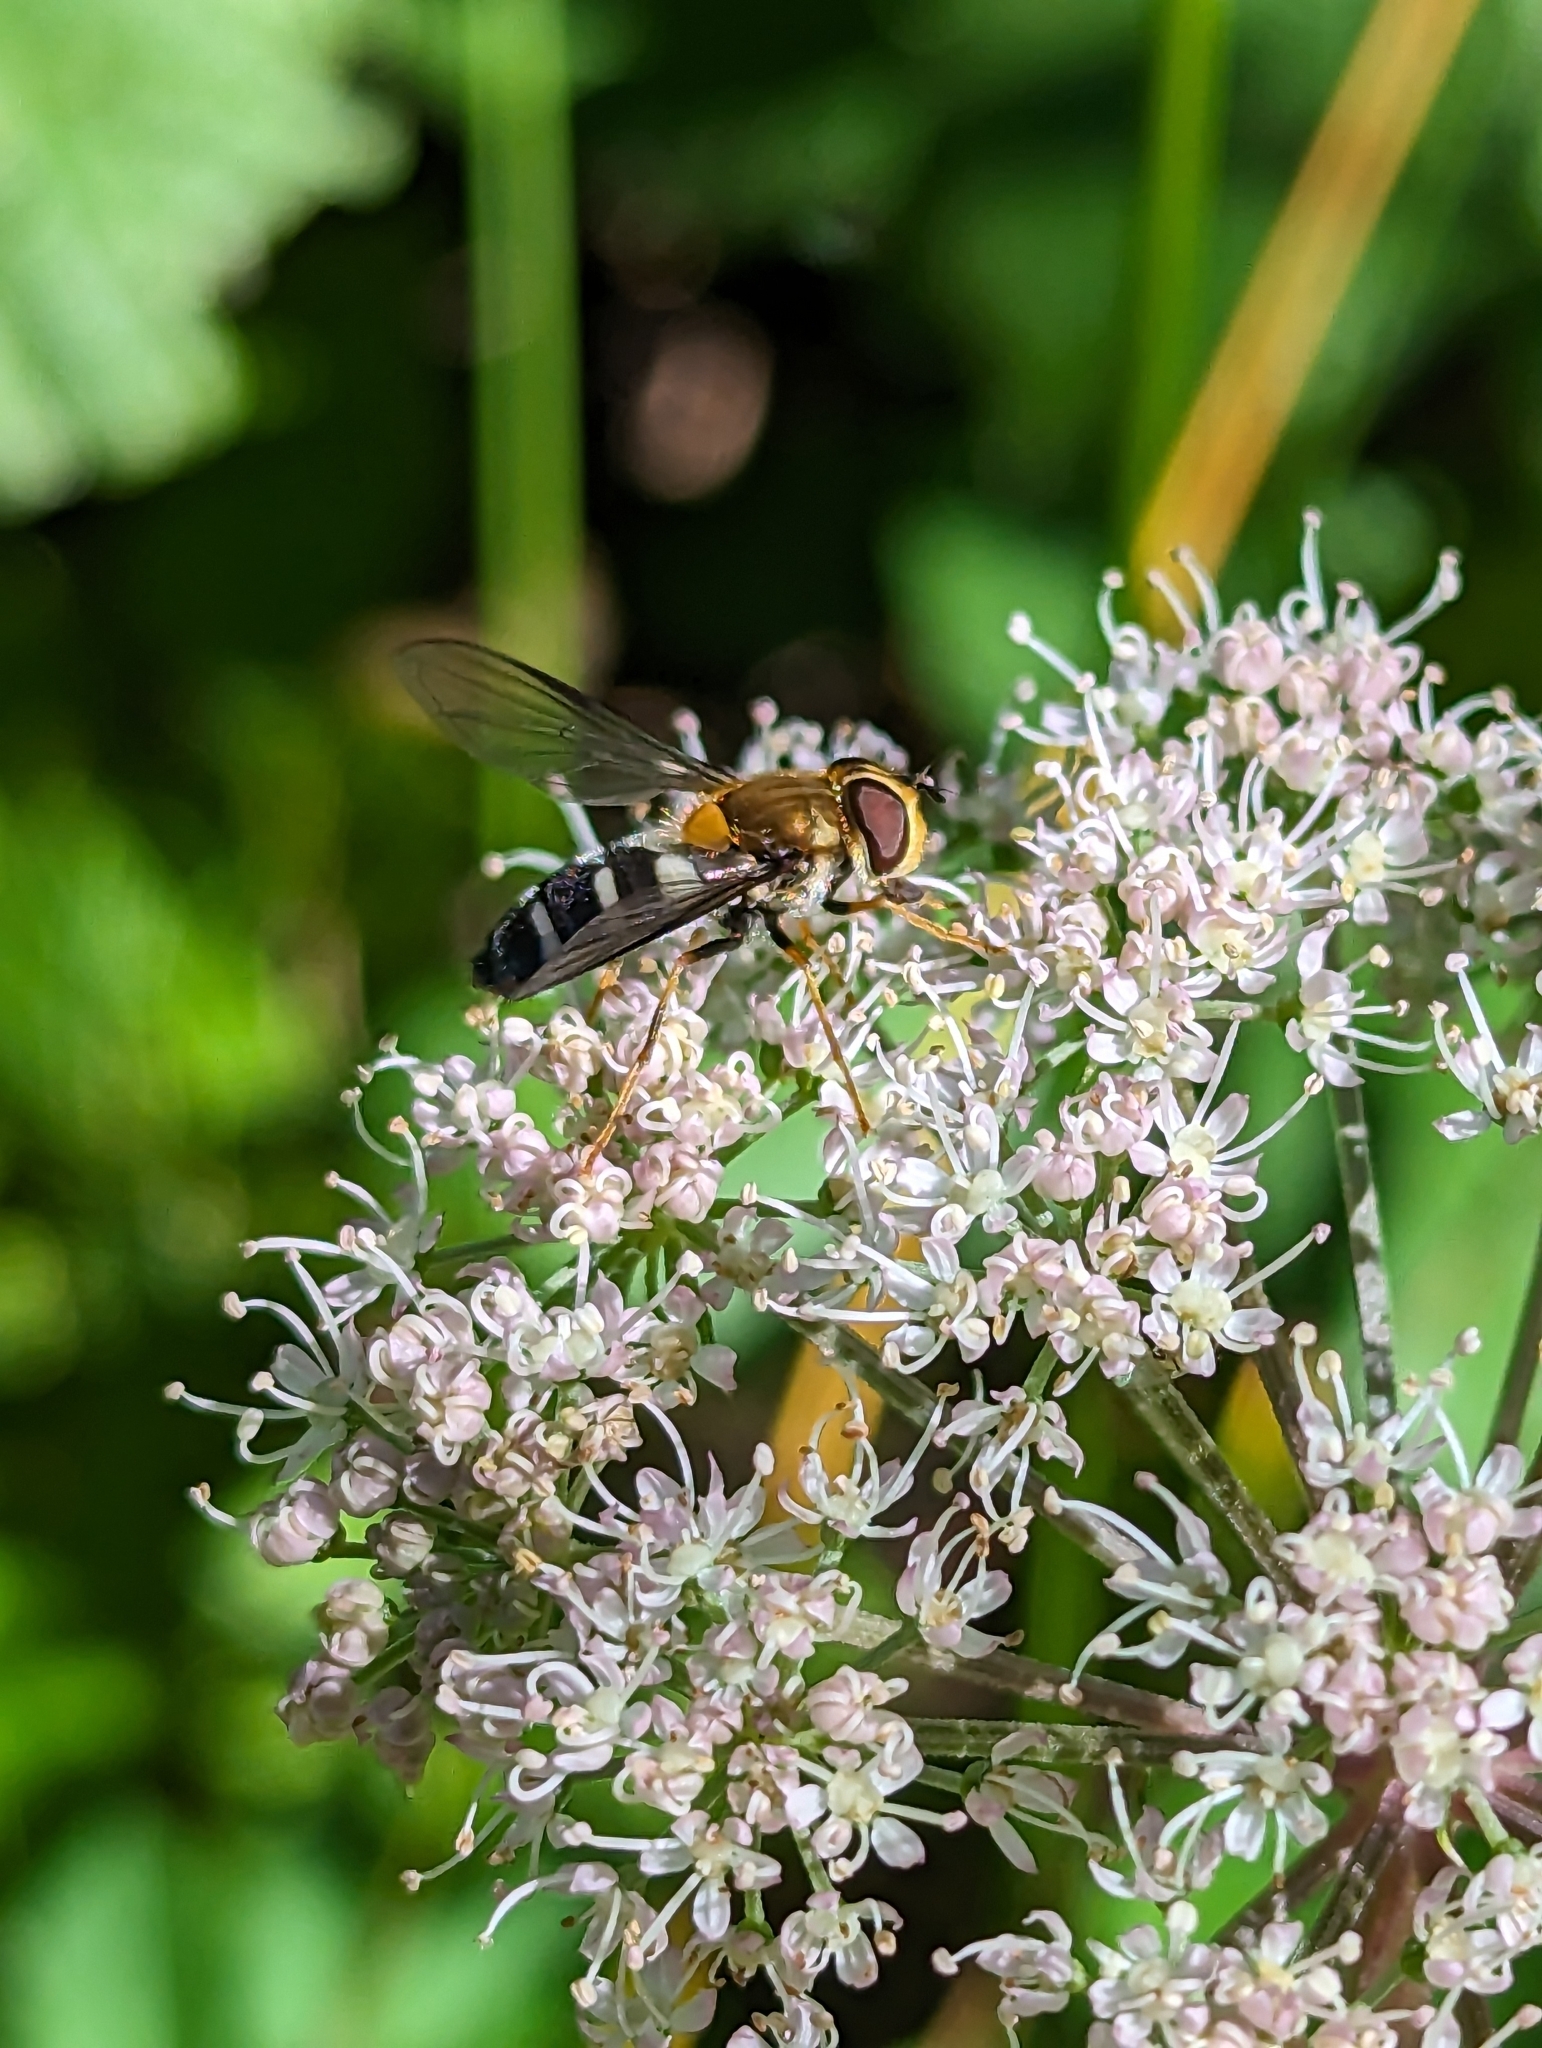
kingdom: Animalia
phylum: Arthropoda
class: Insecta
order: Diptera
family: Syrphidae
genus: Leucozona
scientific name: Leucozona glaucia
